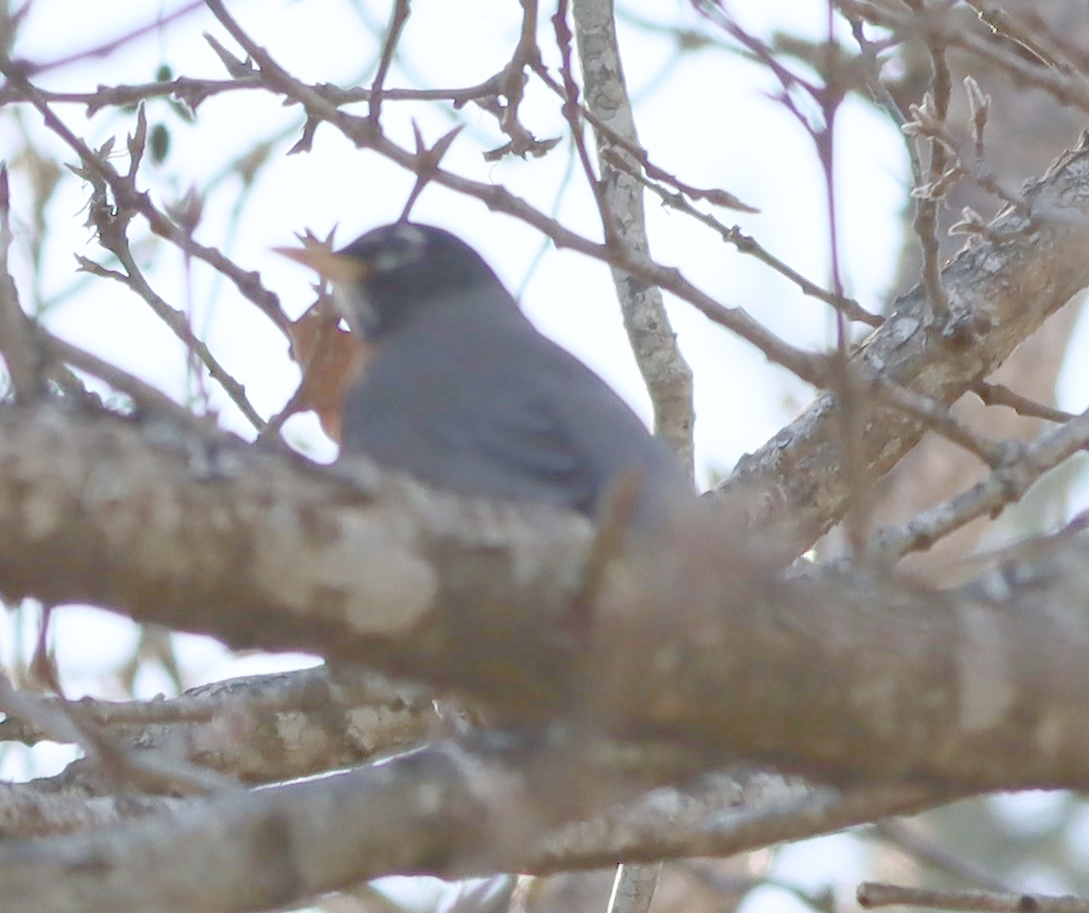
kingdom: Animalia
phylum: Chordata
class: Aves
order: Passeriformes
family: Turdidae
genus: Turdus
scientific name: Turdus migratorius
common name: American robin
